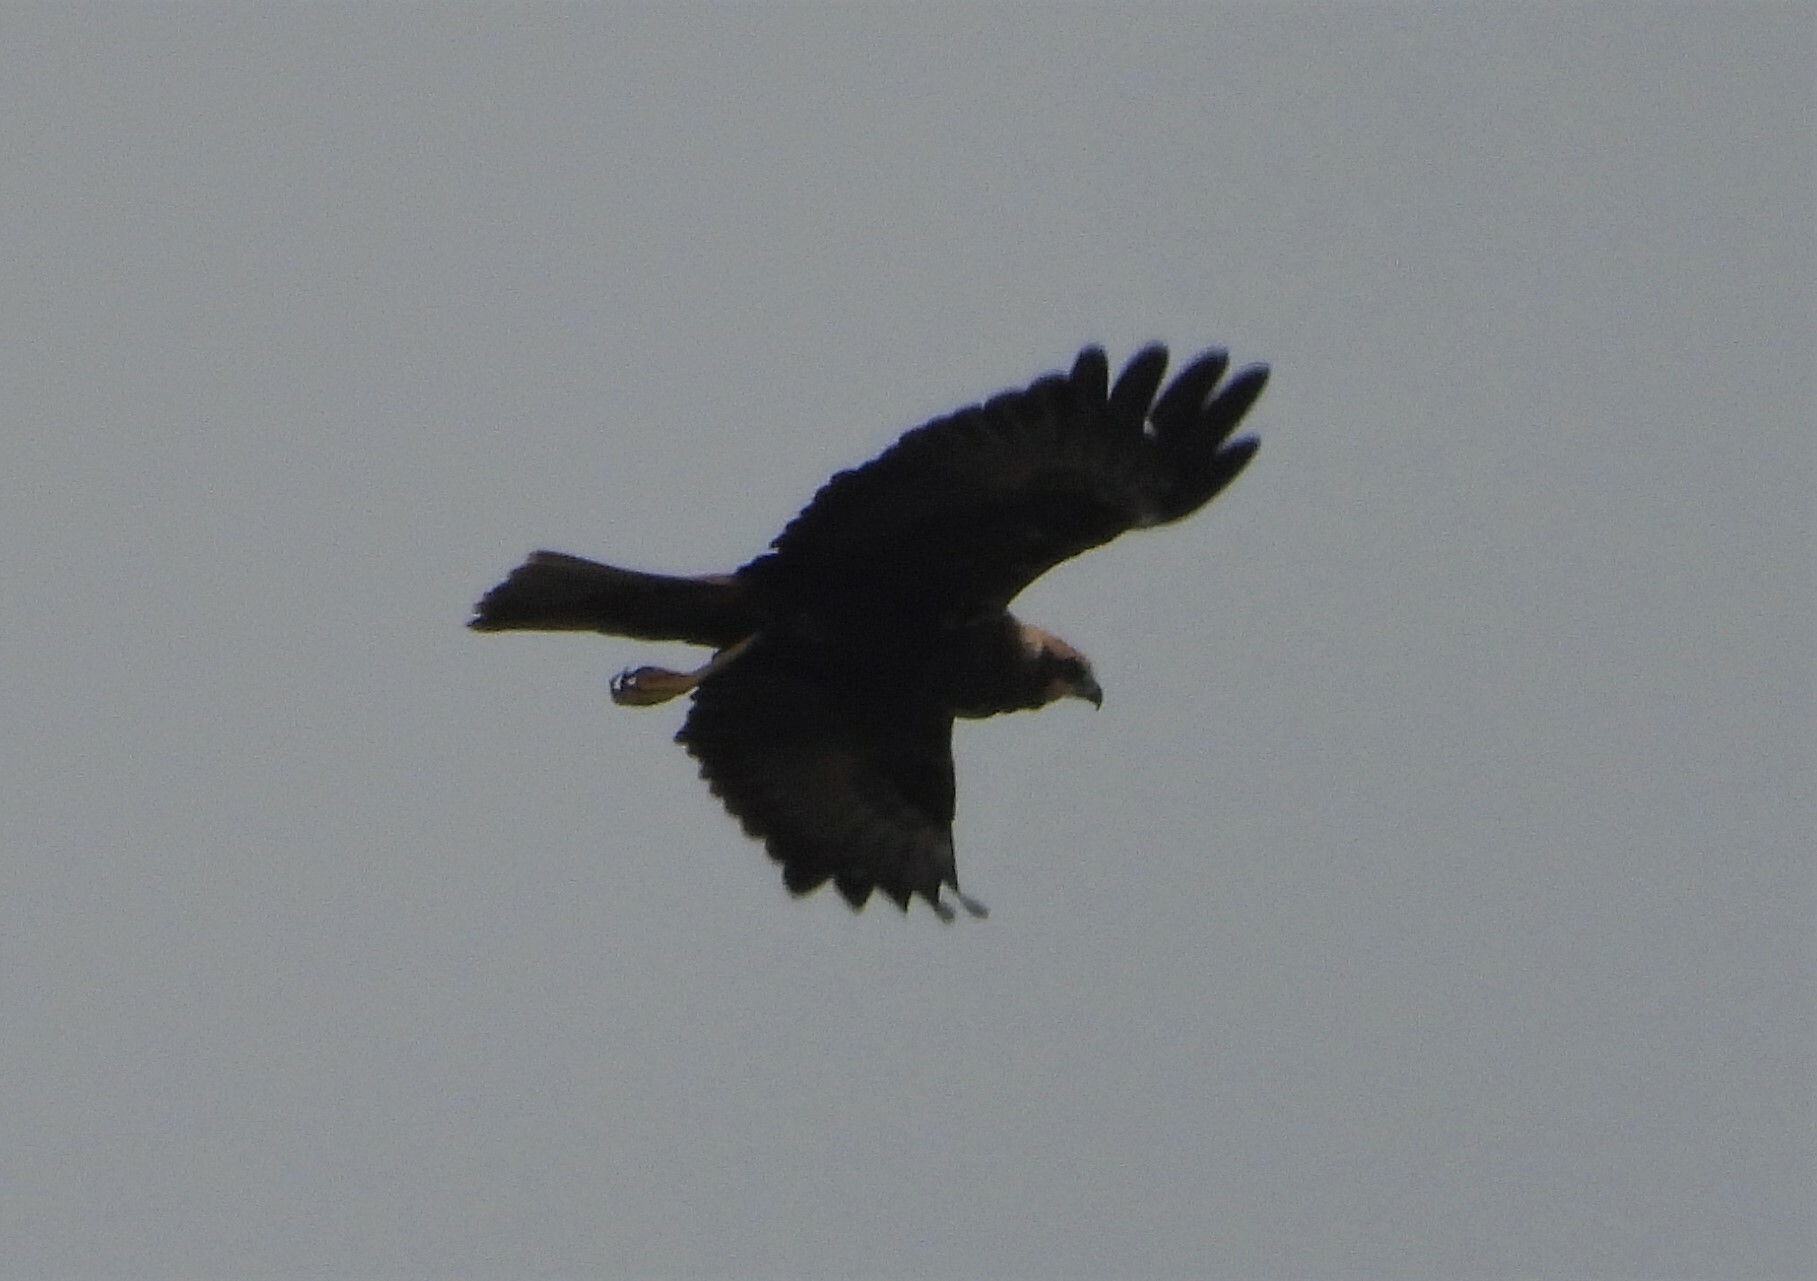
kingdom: Animalia
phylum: Chordata
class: Aves
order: Accipitriformes
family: Accipitridae
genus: Circus
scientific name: Circus aeruginosus
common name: Western marsh harrier
